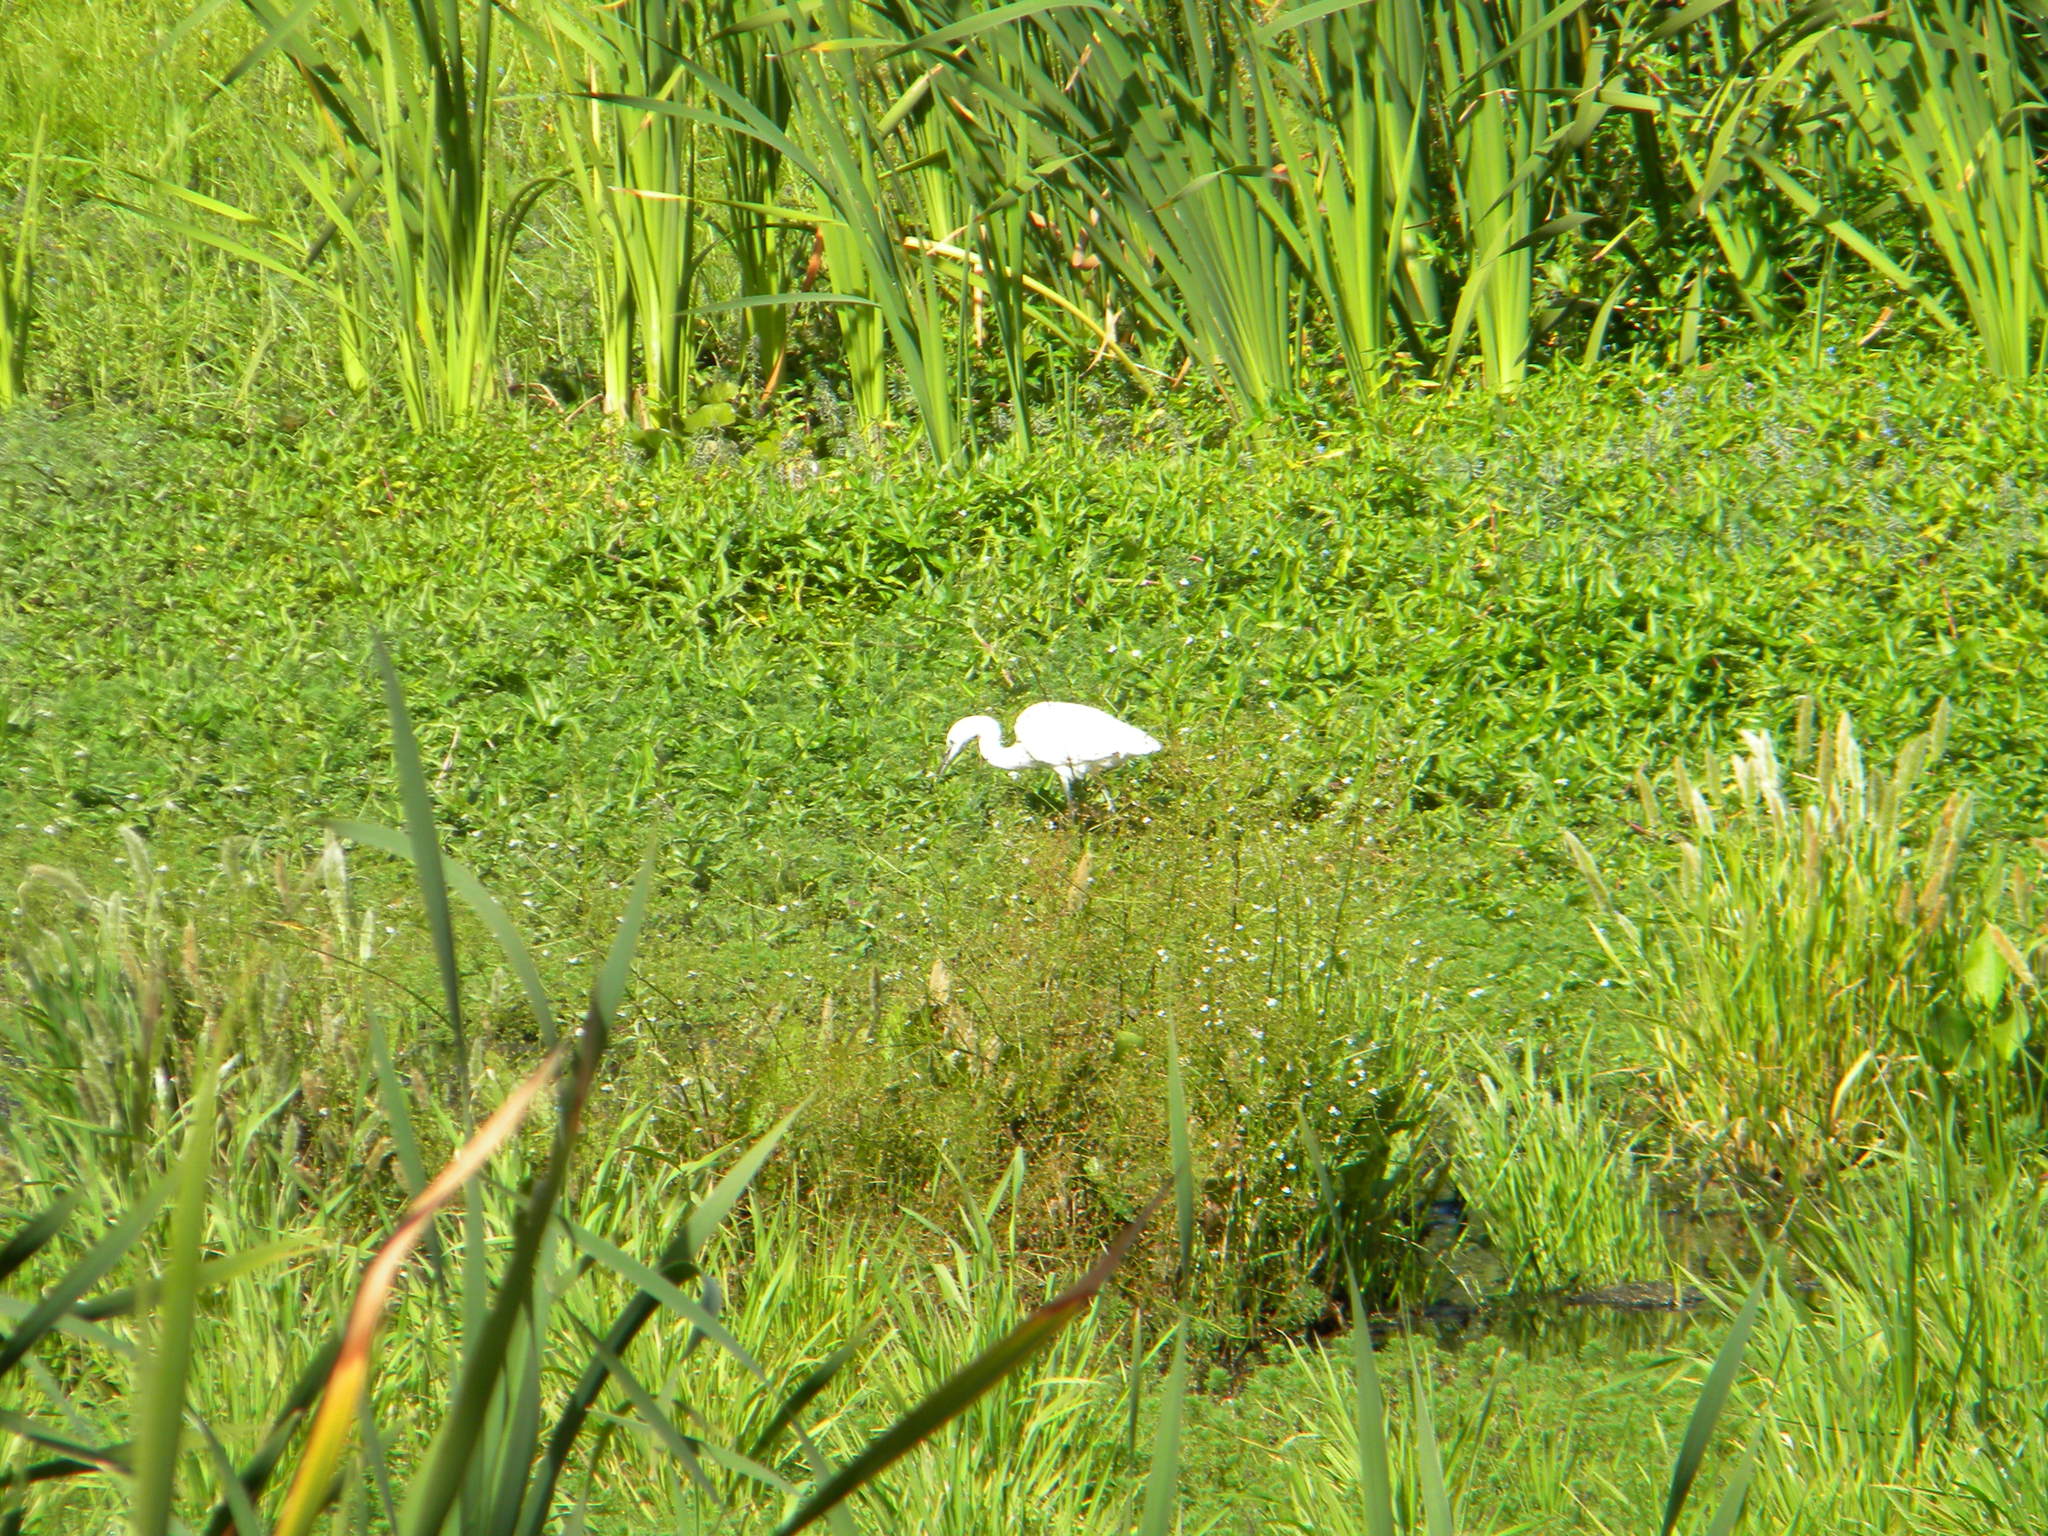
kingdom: Animalia
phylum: Chordata
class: Aves
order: Pelecaniformes
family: Ardeidae
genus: Egretta
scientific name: Egretta garzetta
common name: Little egret
